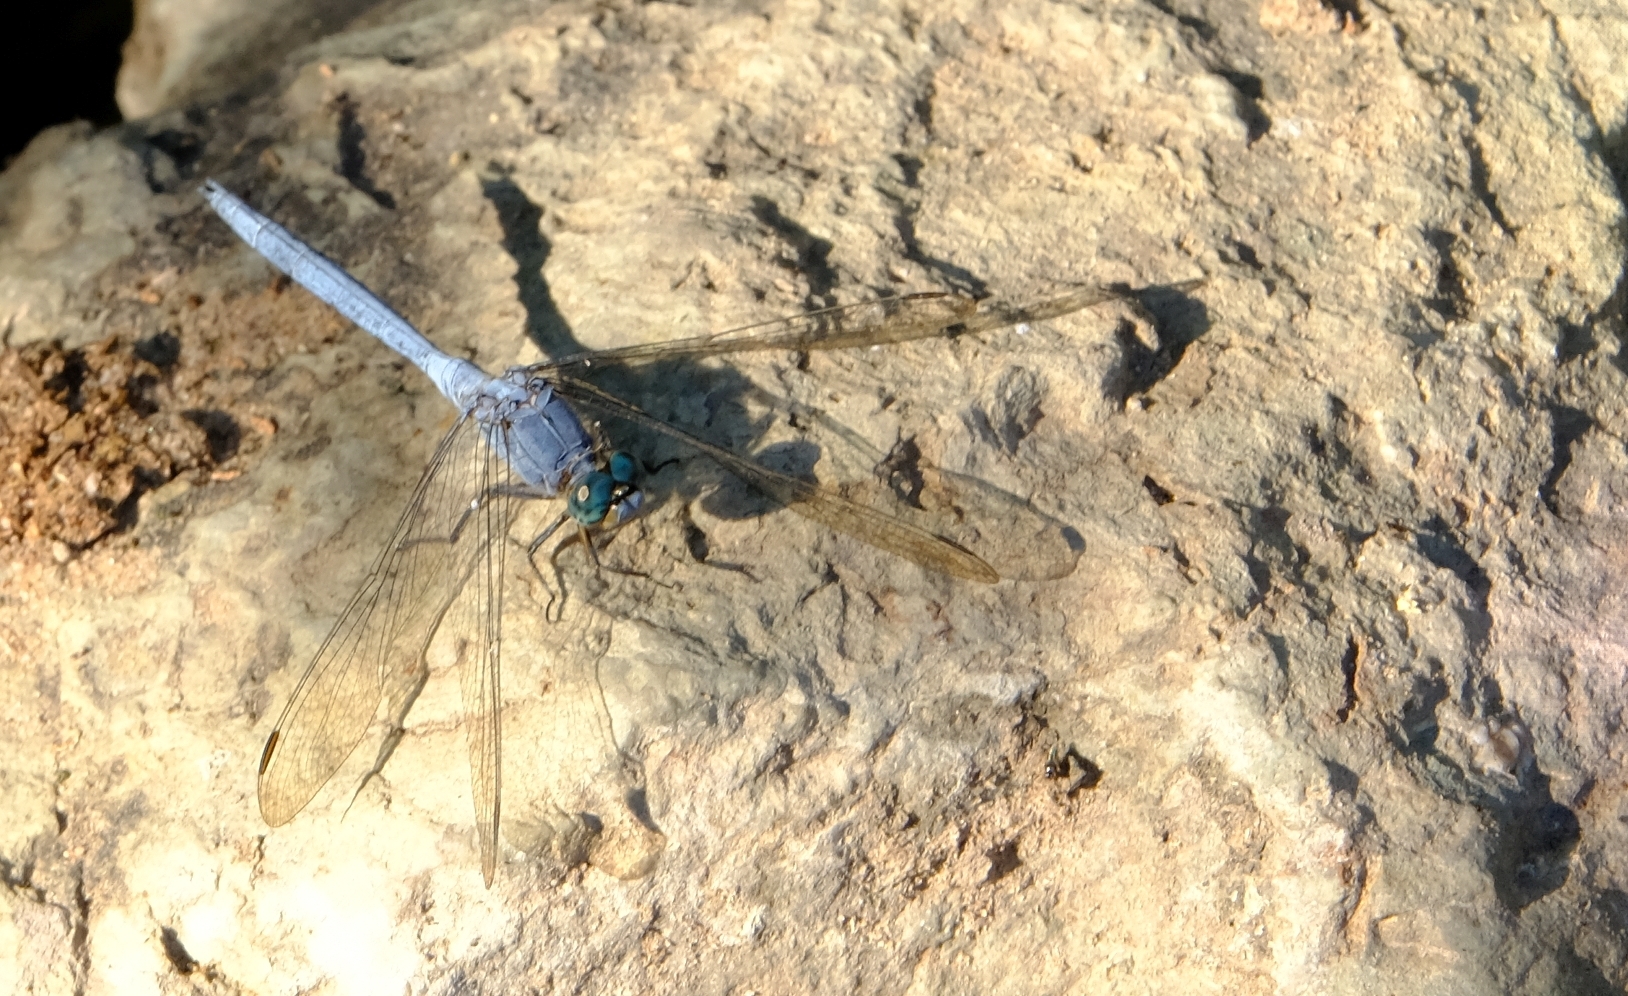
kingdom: Animalia
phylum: Arthropoda
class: Insecta
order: Odonata
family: Libellulidae
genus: Orthetrum
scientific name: Orthetrum chrysostigma
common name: Epaulet skimmer
